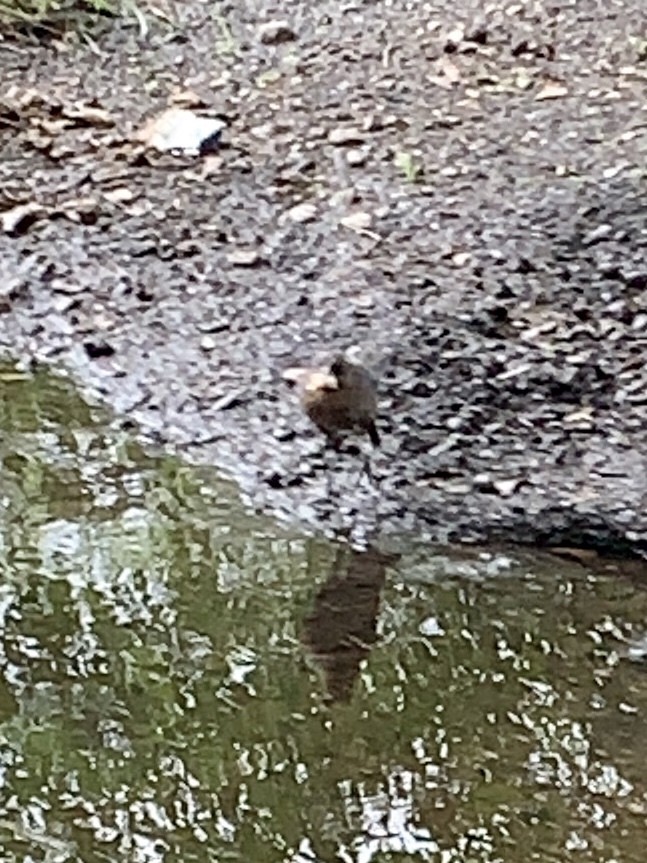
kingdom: Animalia
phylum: Chordata
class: Aves
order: Passeriformes
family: Icteridae
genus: Quiscalus
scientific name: Quiscalus mexicanus
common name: Great-tailed grackle
